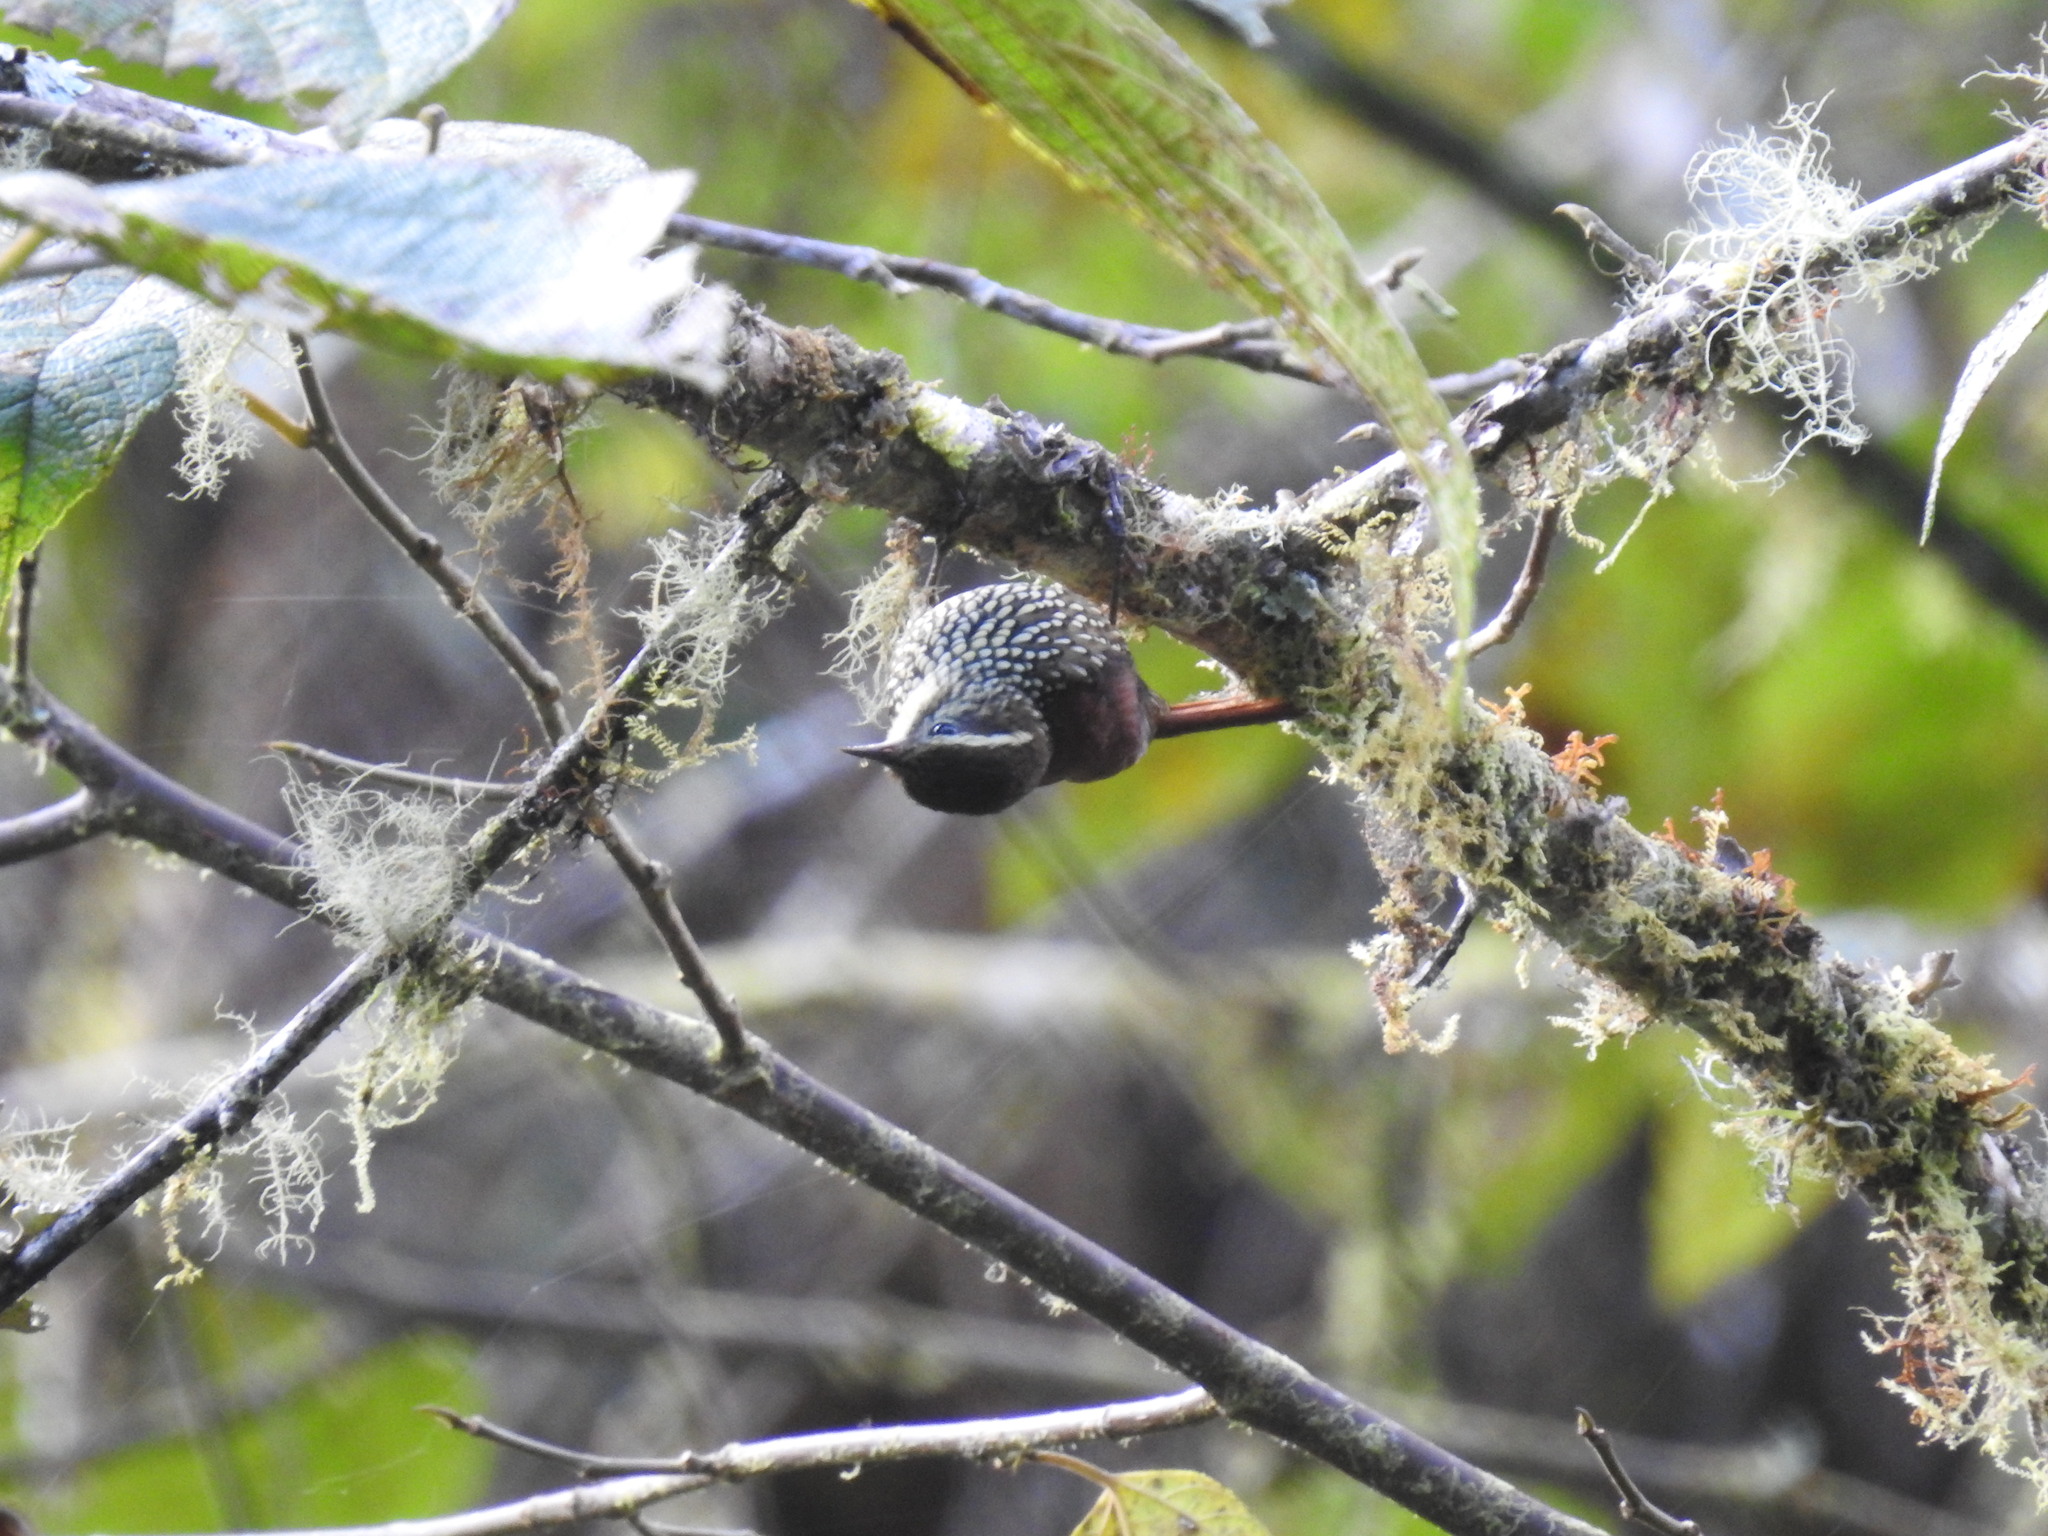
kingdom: Animalia
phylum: Chordata
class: Aves
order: Passeriformes
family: Furnariidae
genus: Margarornis
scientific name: Margarornis squamiger
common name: Pearled treerunner
